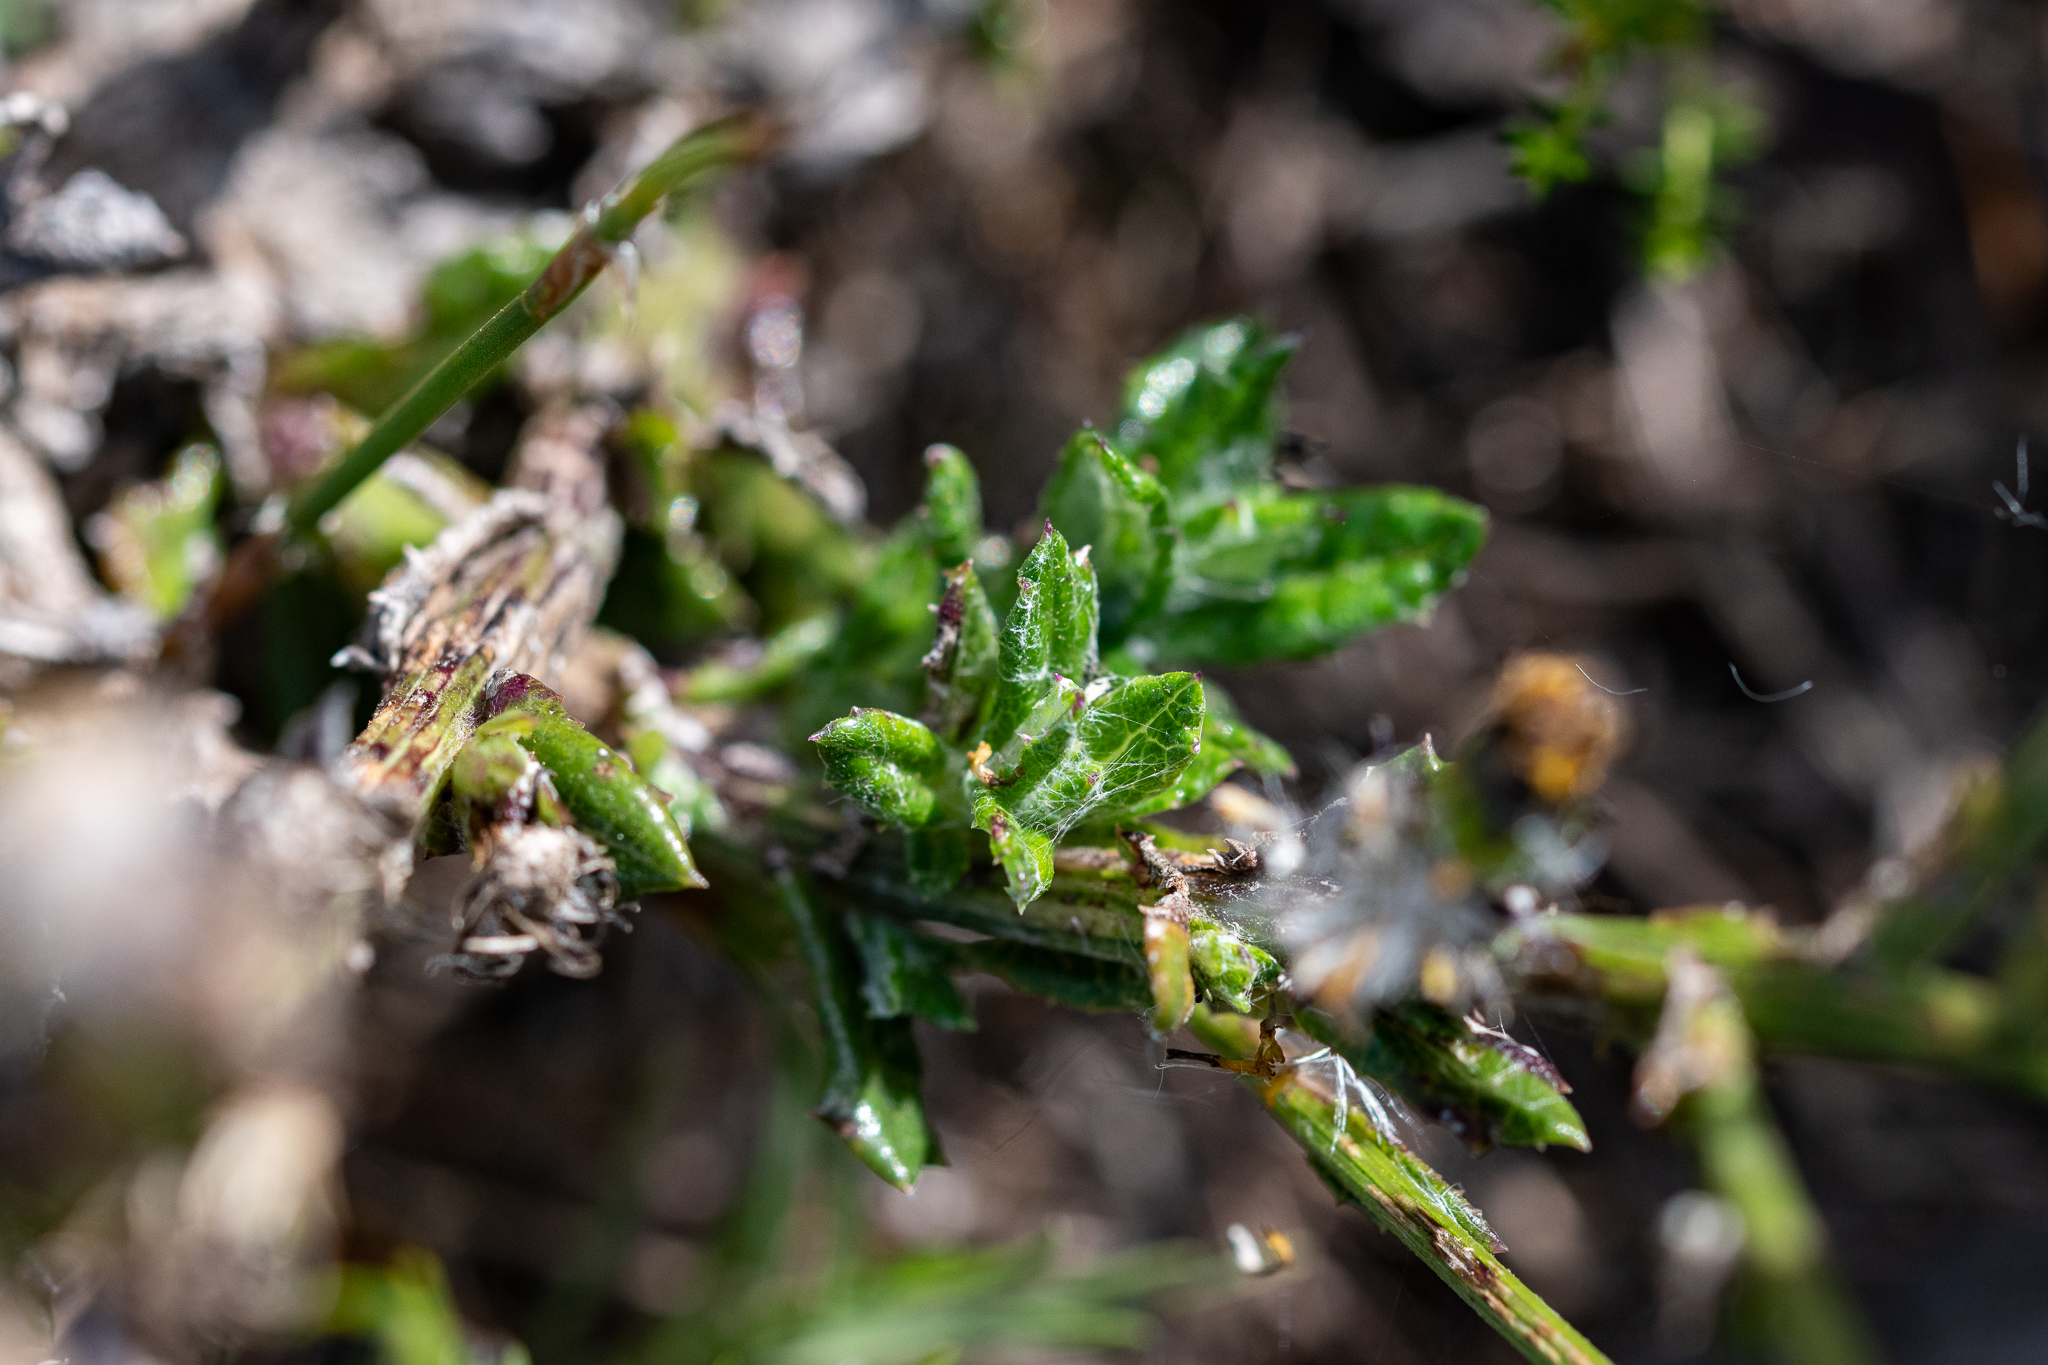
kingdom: Plantae
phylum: Tracheophyta
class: Magnoliopsida
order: Asterales
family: Asteraceae
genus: Senecio
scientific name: Senecio pubigerus
